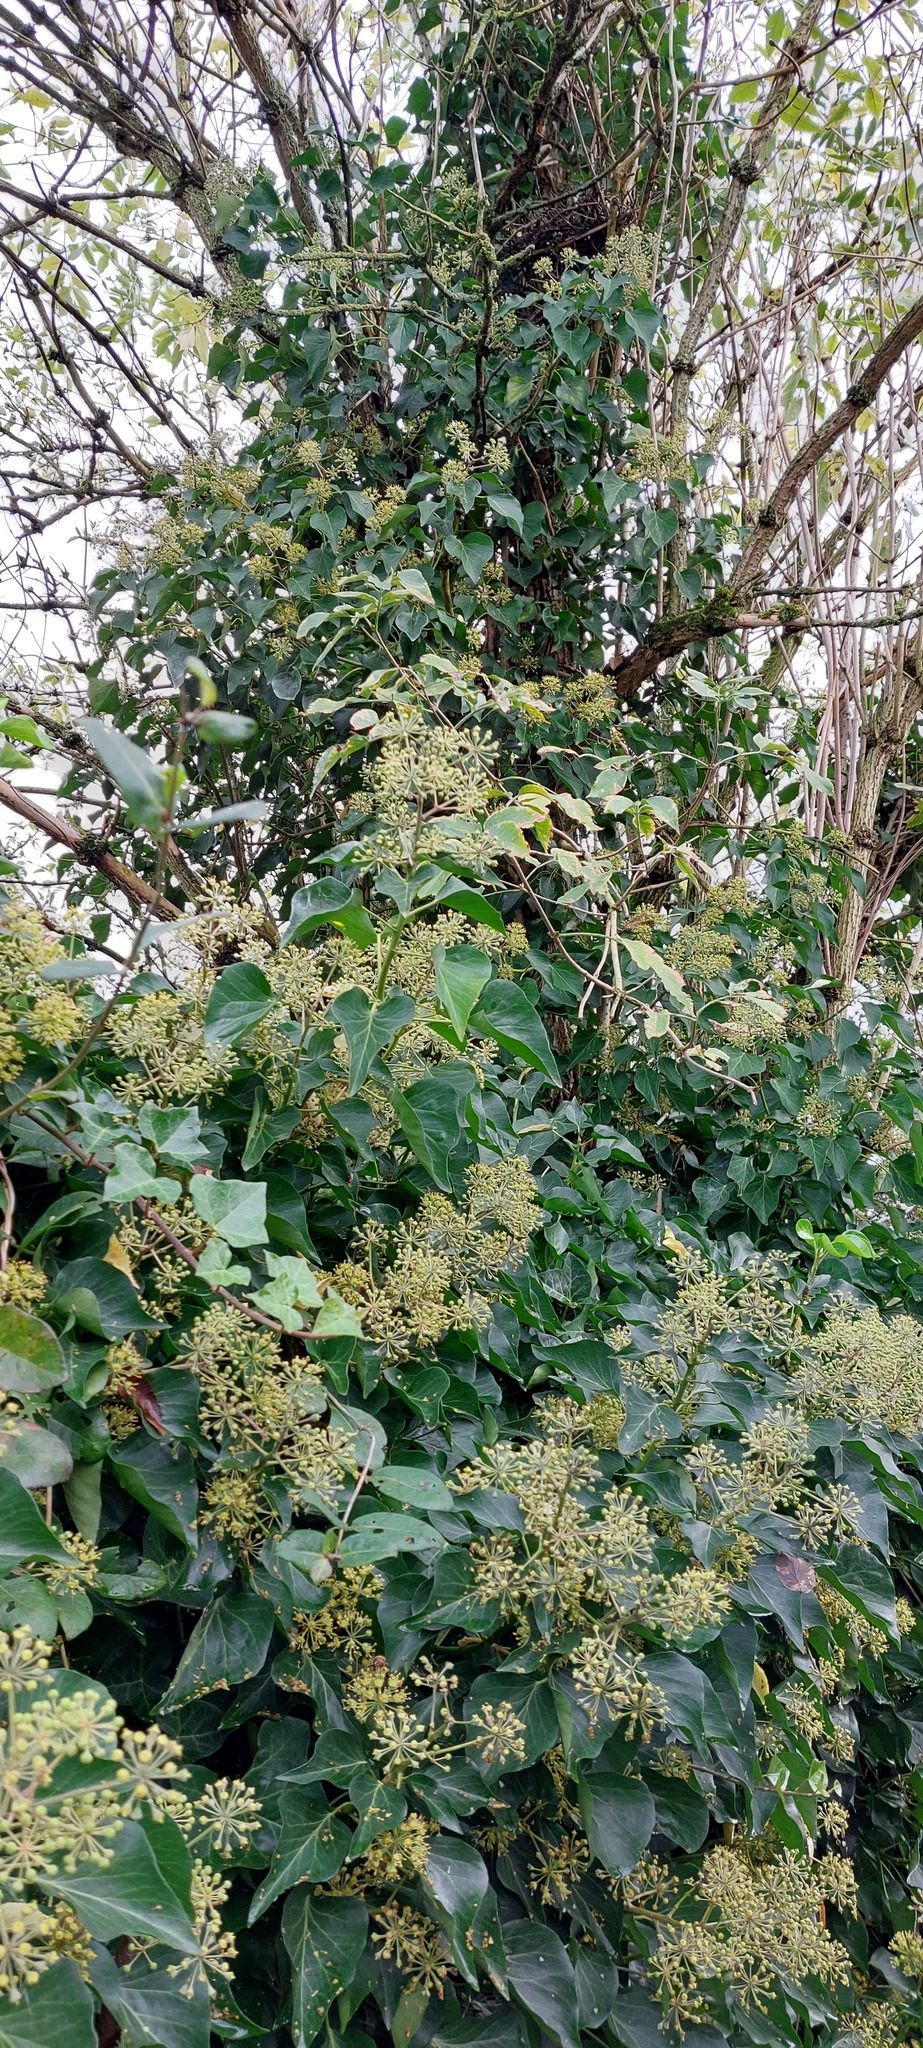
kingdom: Plantae
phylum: Tracheophyta
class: Magnoliopsida
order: Apiales
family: Araliaceae
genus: Hedera
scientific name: Hedera helix
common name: Ivy
